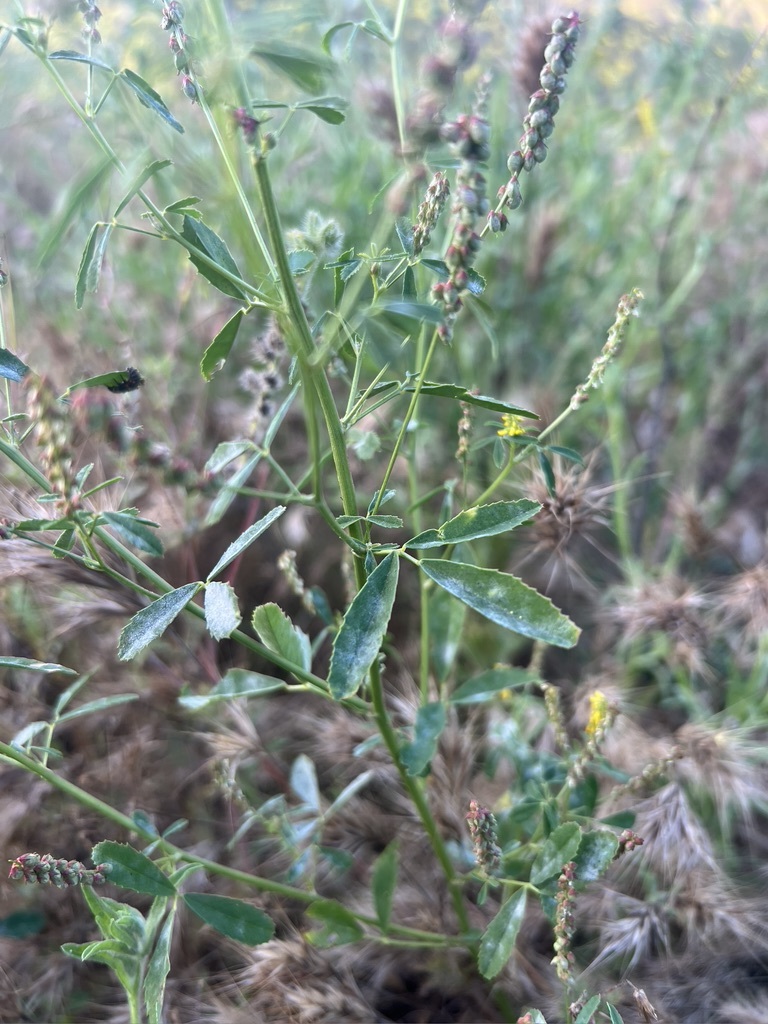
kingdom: Plantae
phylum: Tracheophyta
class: Magnoliopsida
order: Fabales
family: Fabaceae
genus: Melilotus
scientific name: Melilotus indicus
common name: Small melilot
